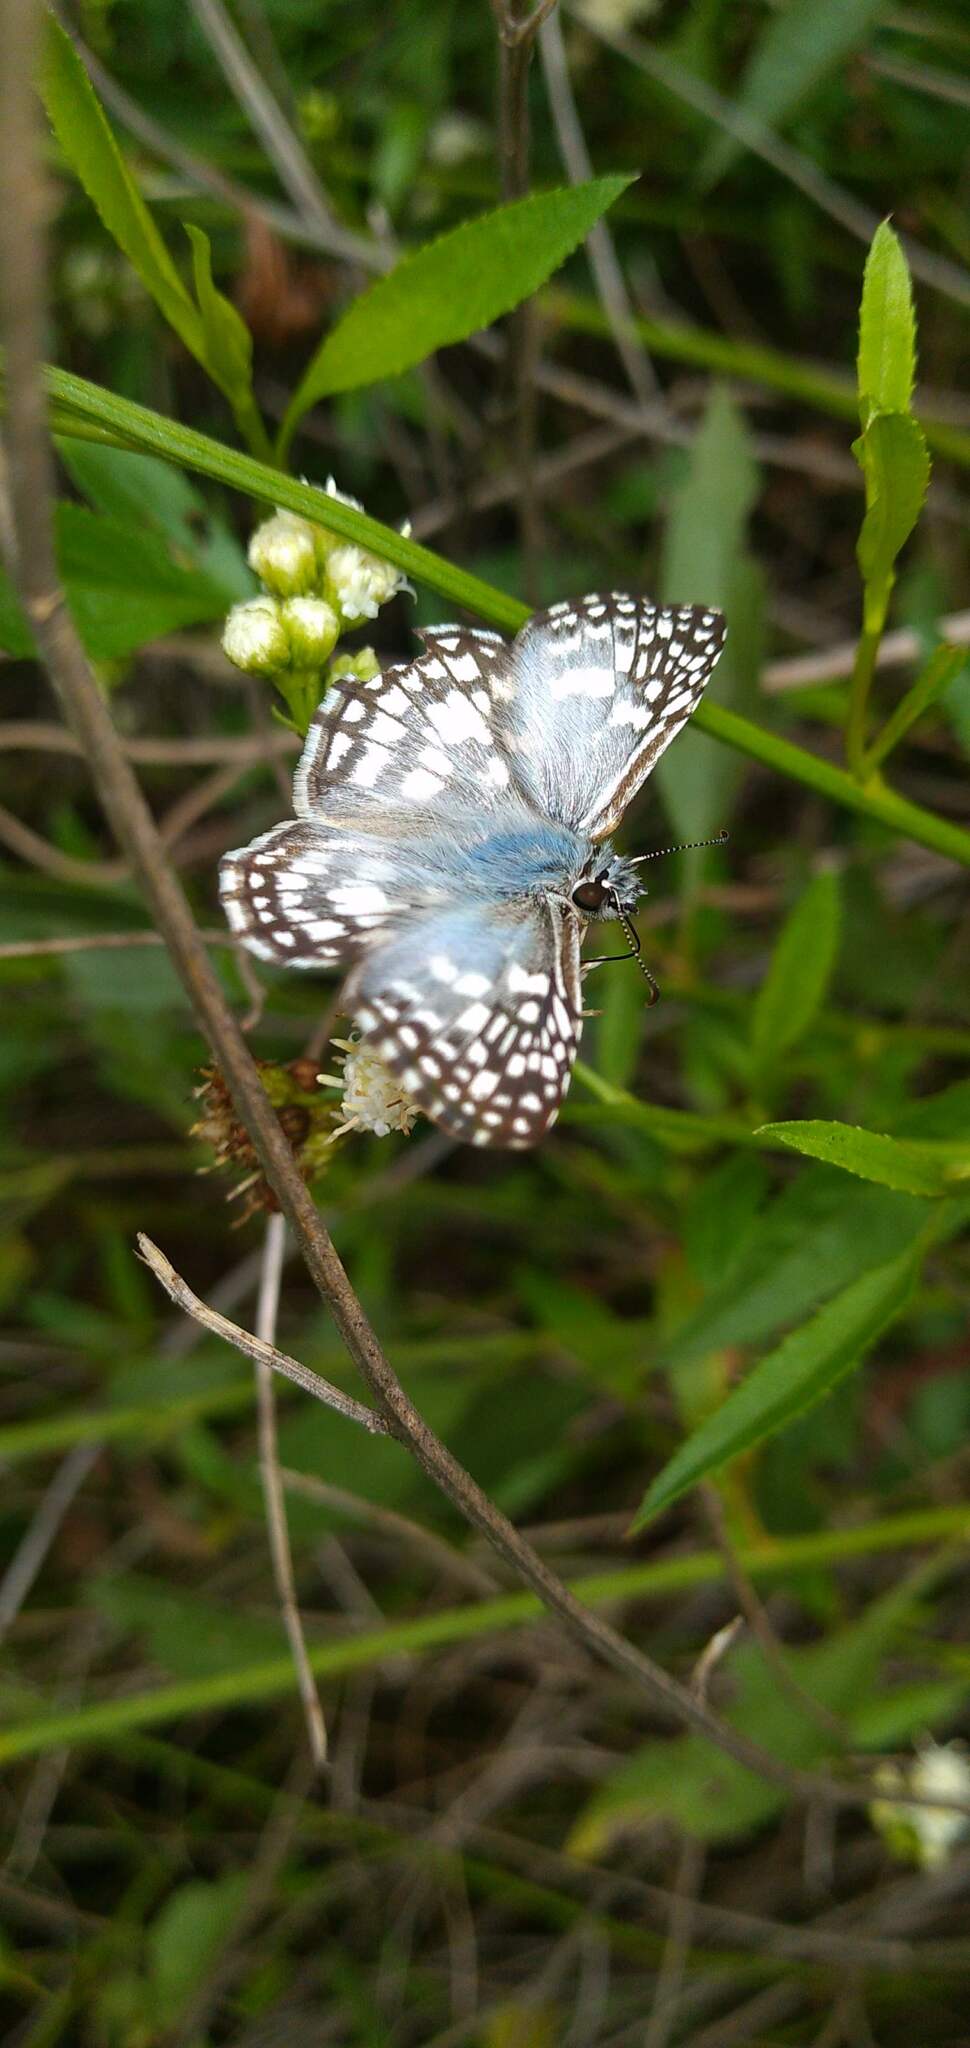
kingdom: Animalia
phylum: Arthropoda
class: Insecta
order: Lepidoptera
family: Hesperiidae
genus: Pyrgus
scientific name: Pyrgus oileus
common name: Tropical checkered-skipper
